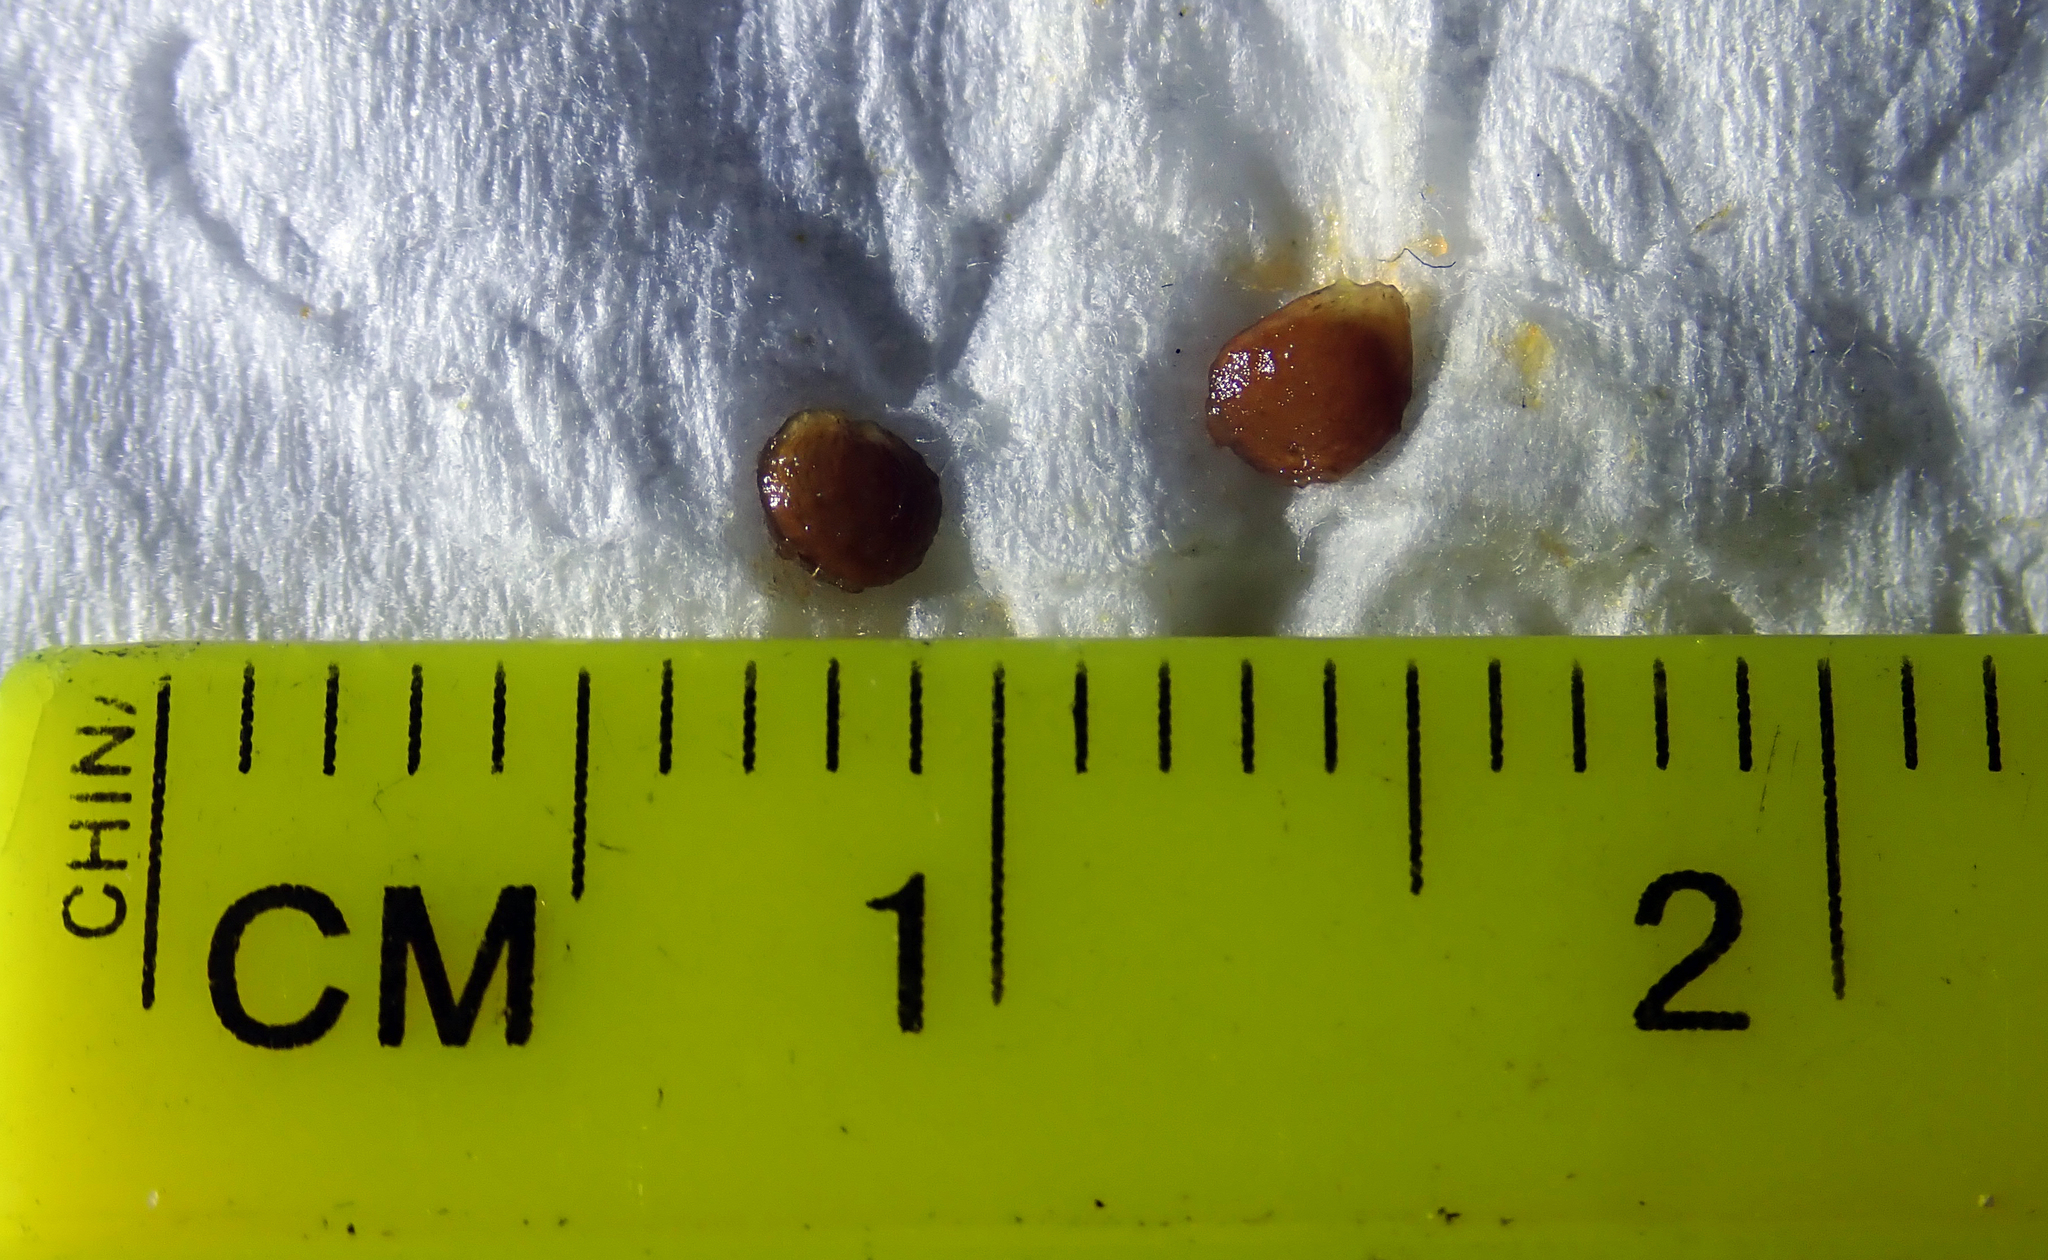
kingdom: Plantae
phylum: Tracheophyta
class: Magnoliopsida
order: Solanales
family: Solanaceae
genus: Solanum
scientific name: Solanum laciniatum
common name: Kangaroo-apple
